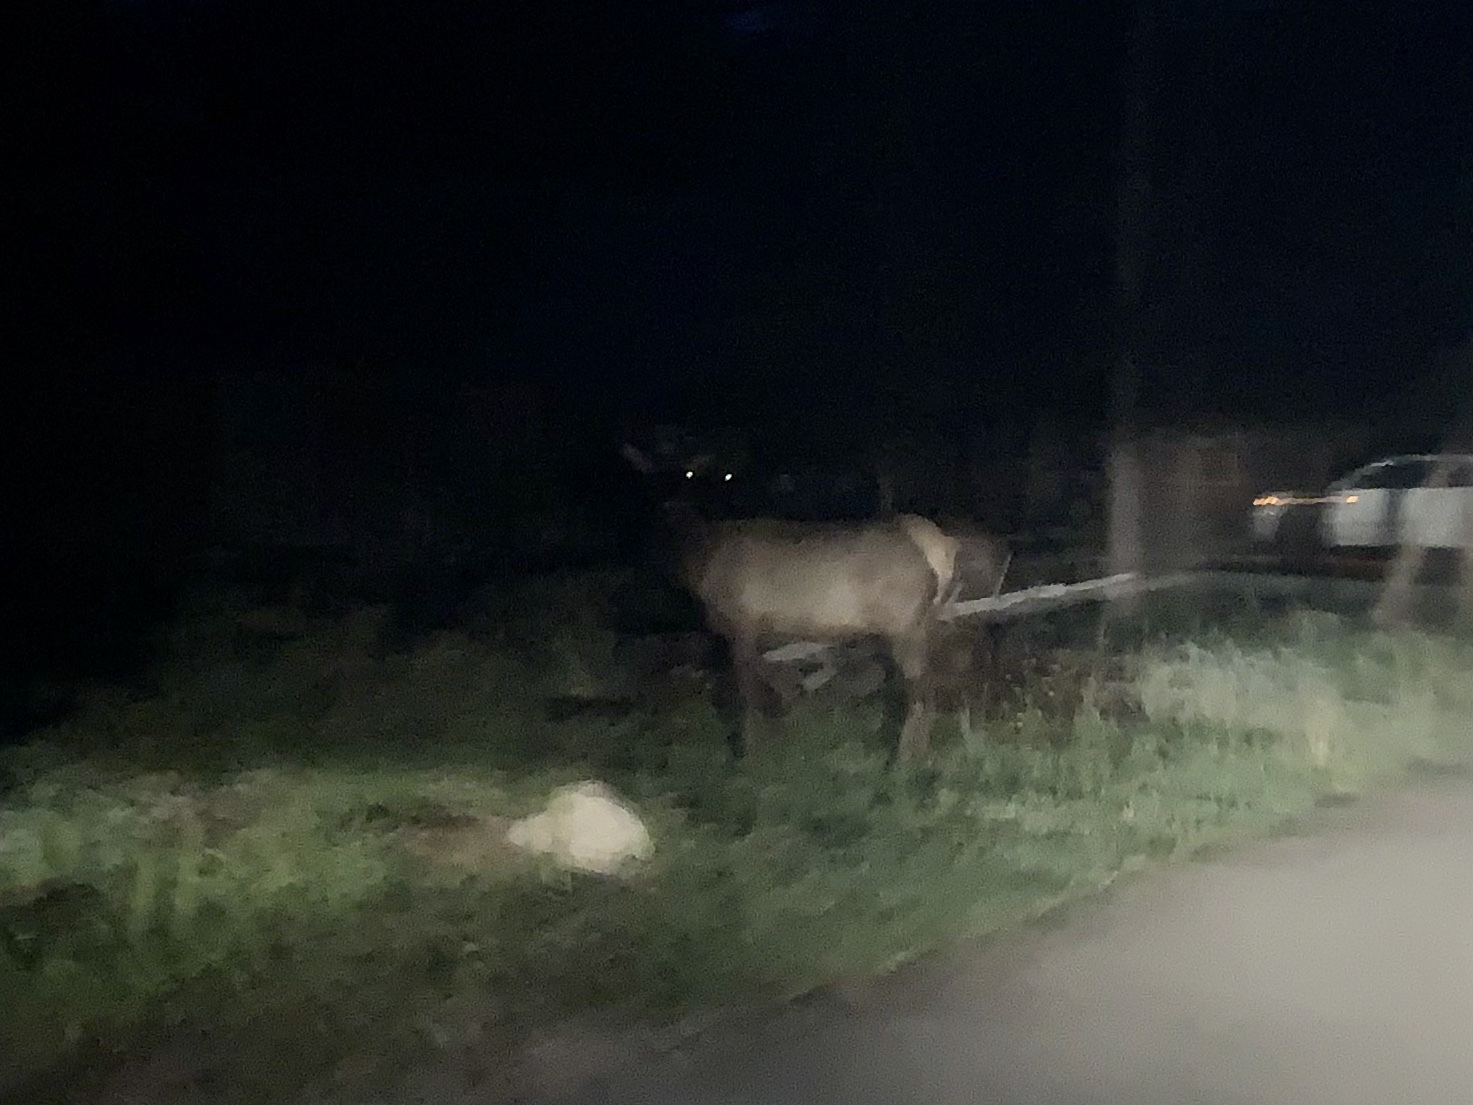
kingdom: Animalia
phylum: Chordata
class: Mammalia
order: Artiodactyla
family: Cervidae
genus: Cervus
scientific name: Cervus elaphus
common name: Red deer
